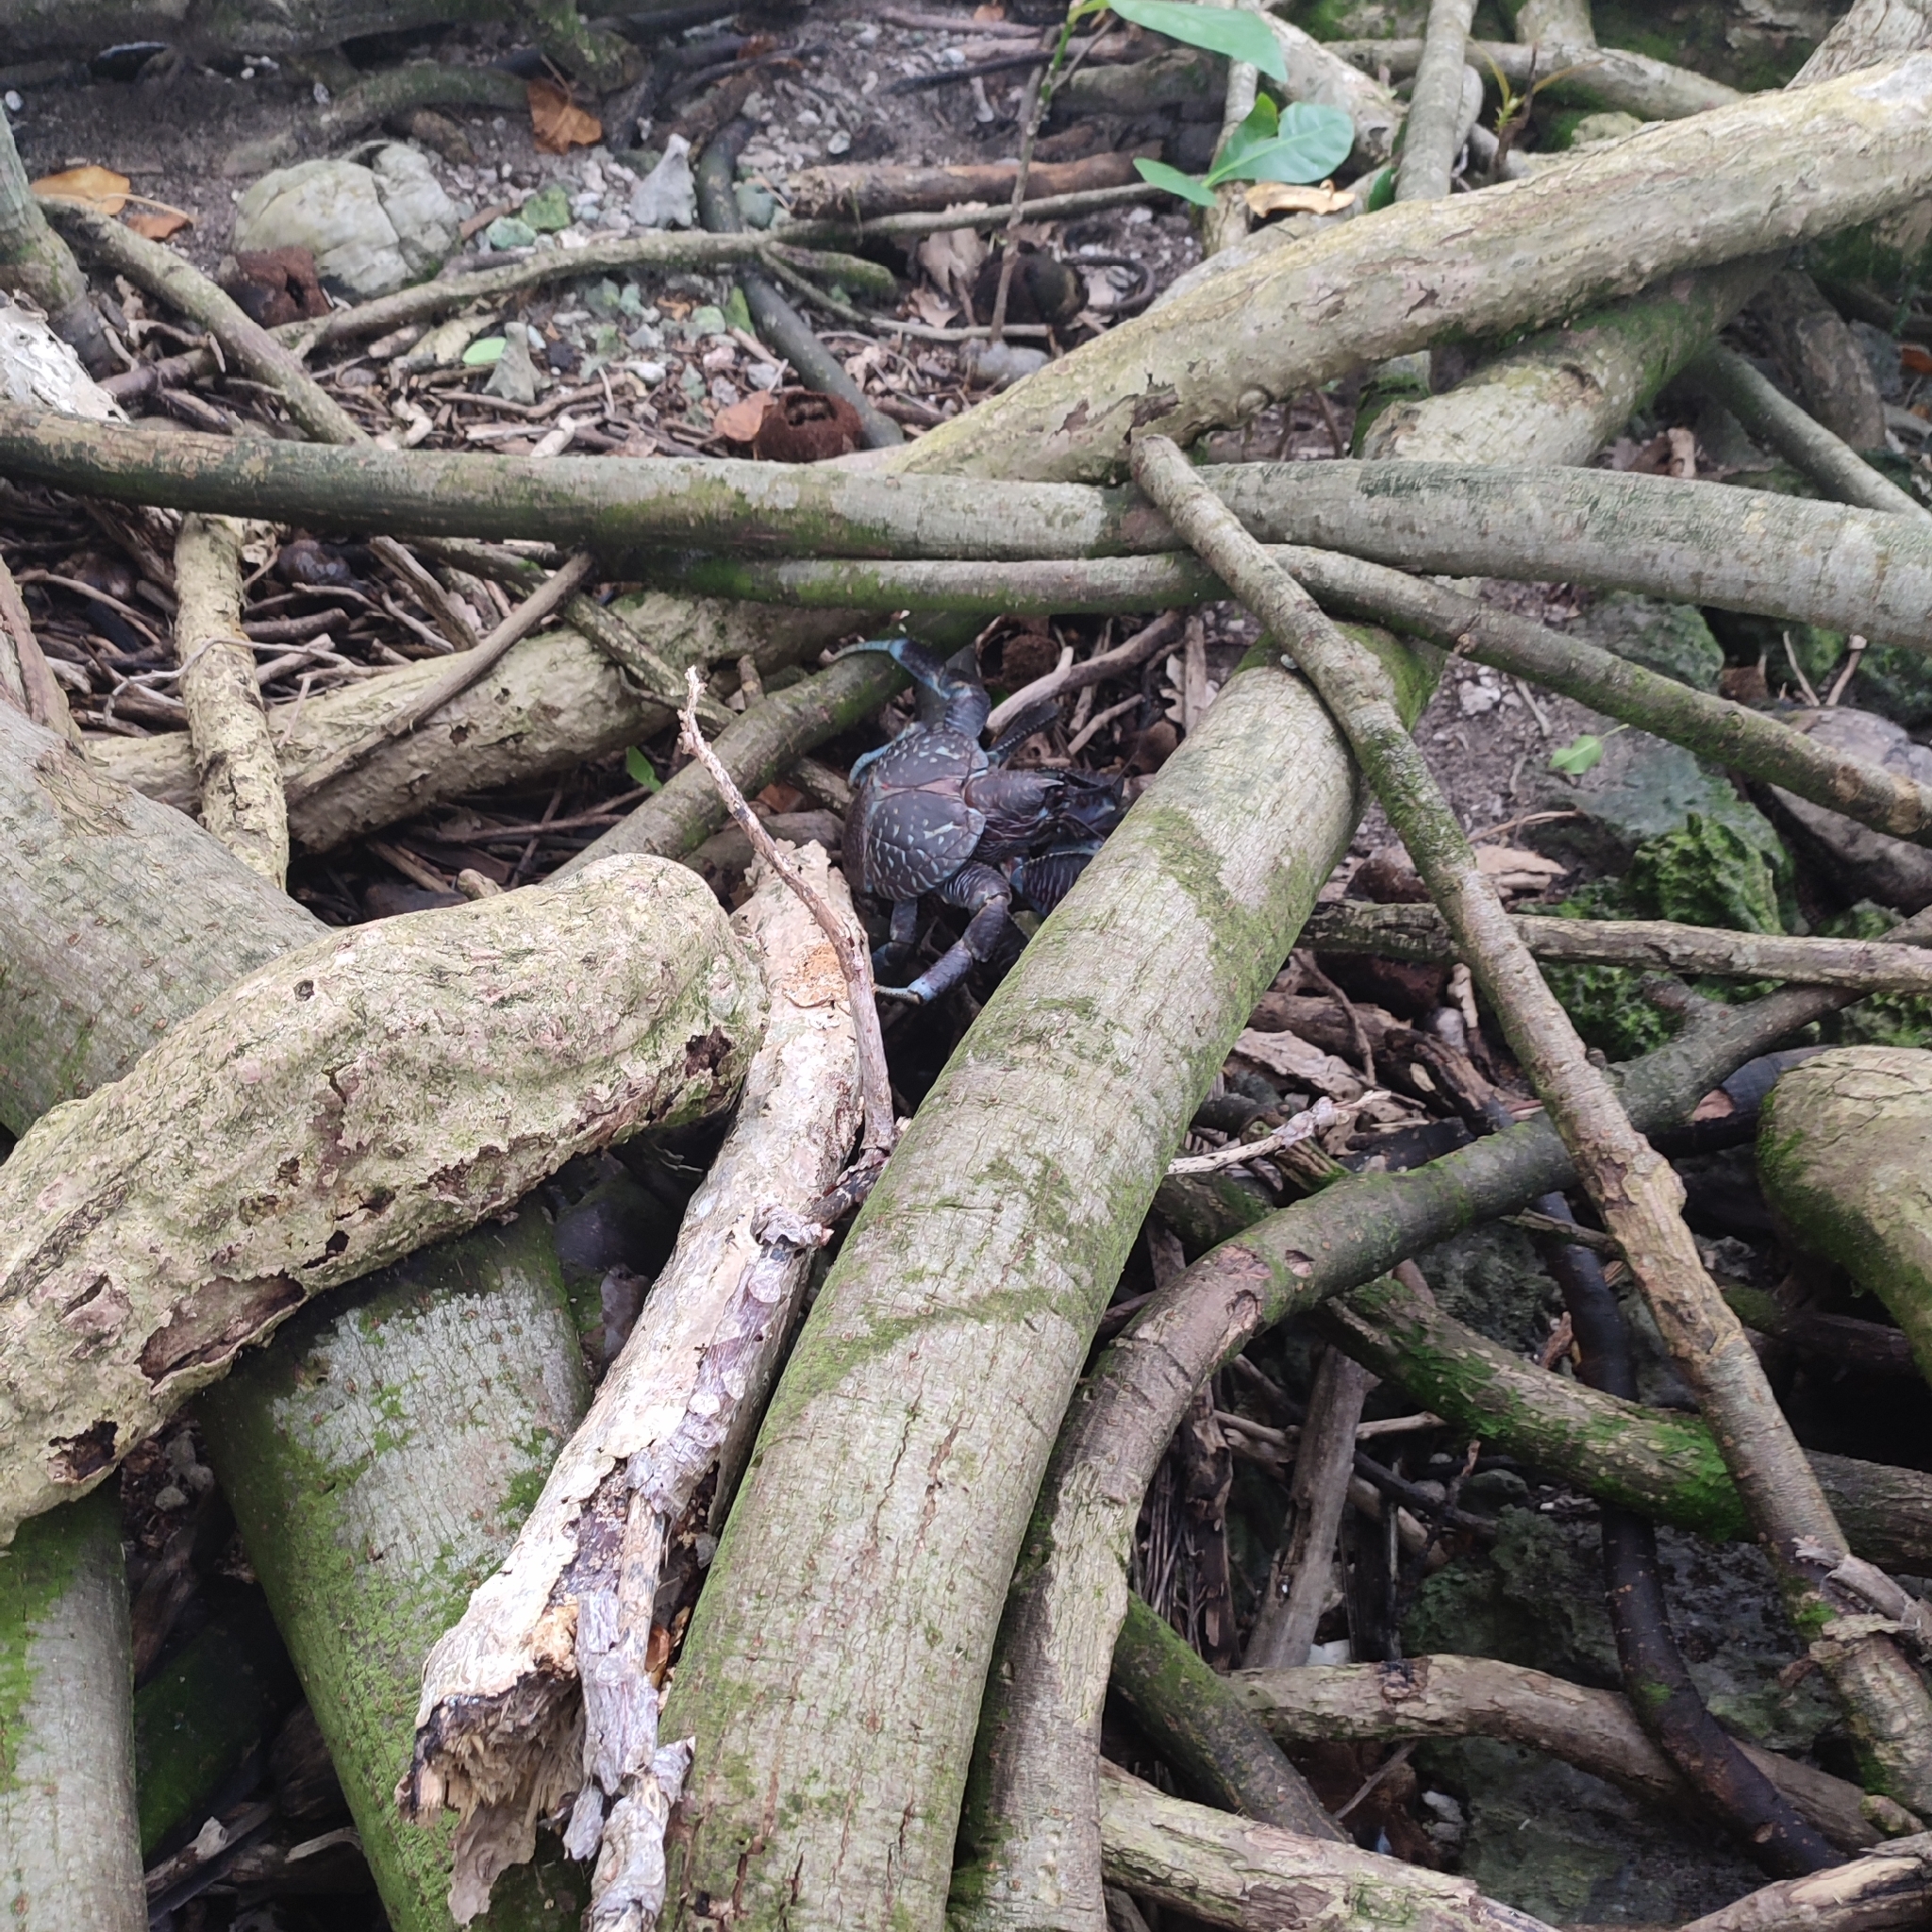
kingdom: Animalia
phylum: Arthropoda
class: Malacostraca
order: Decapoda
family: Coenobitidae
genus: Birgus
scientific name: Birgus latro
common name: Coconut crab
